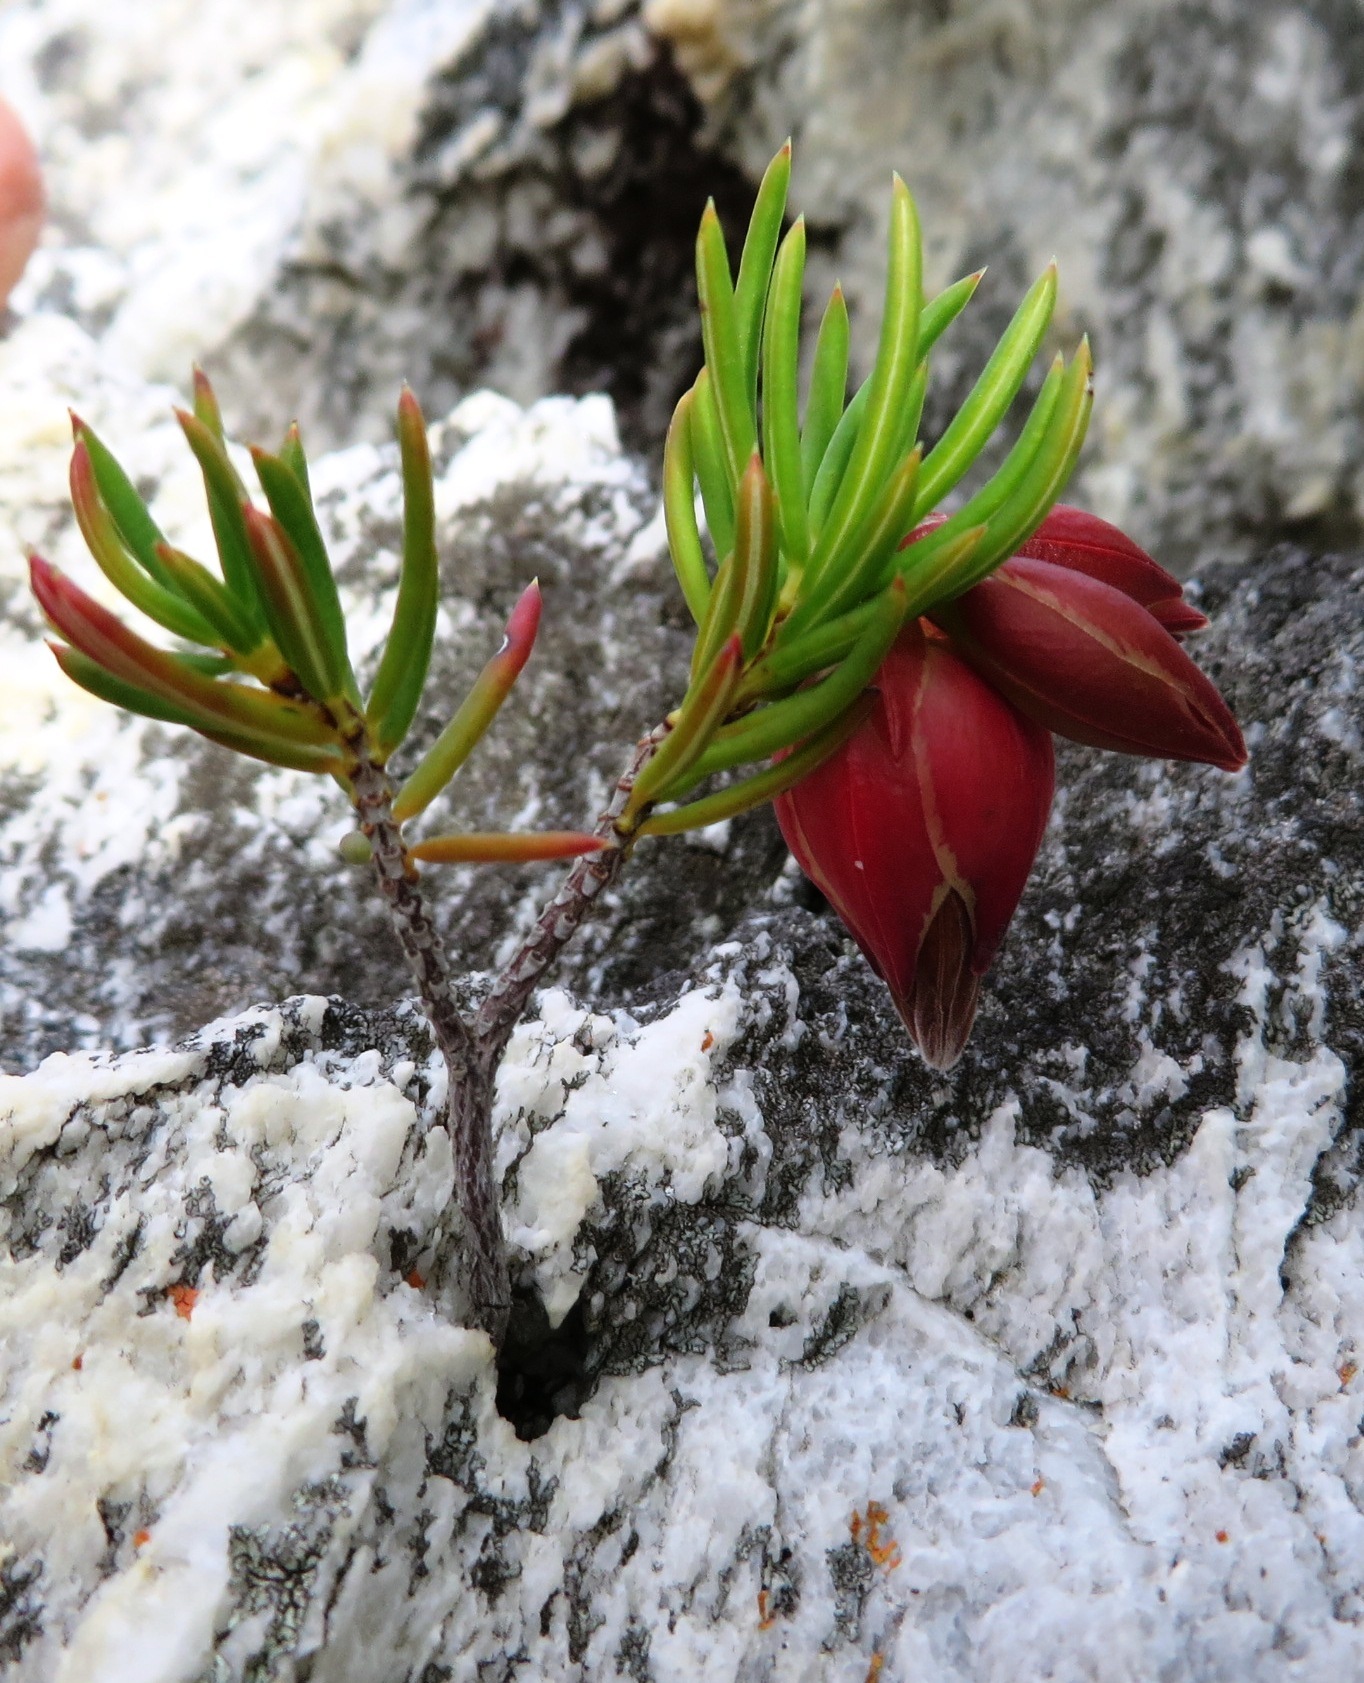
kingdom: Plantae
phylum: Tracheophyta
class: Magnoliopsida
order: Ericales
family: Ericaceae
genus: Erica
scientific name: Erica lanuginosa
